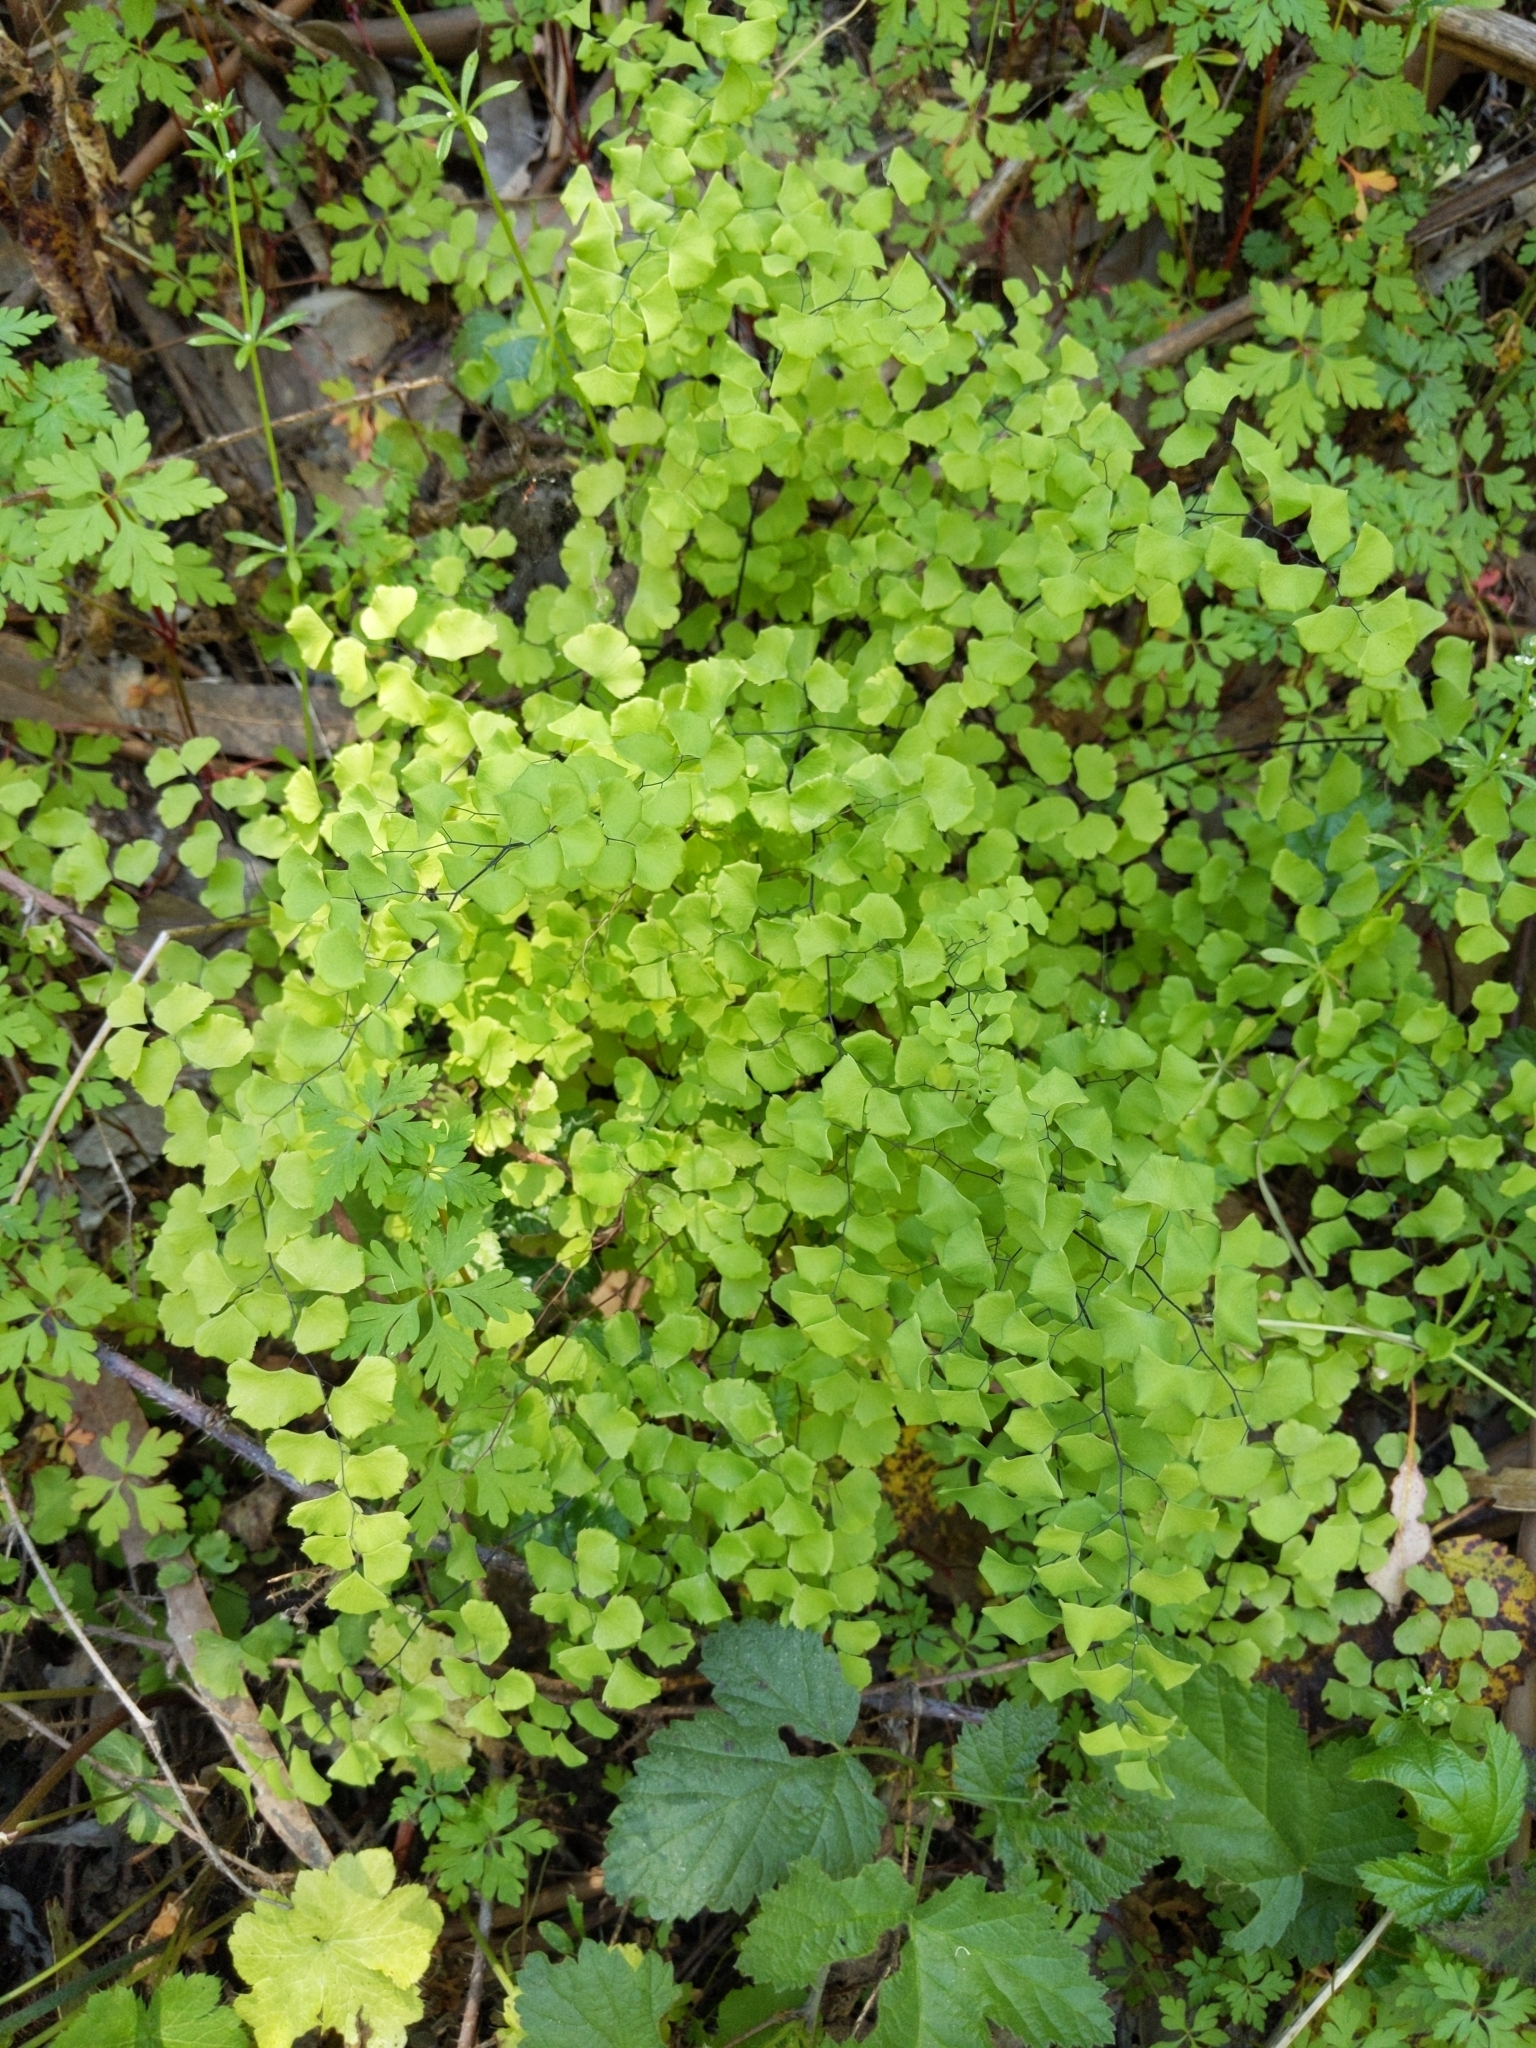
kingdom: Plantae
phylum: Tracheophyta
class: Polypodiopsida
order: Polypodiales
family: Pteridaceae
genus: Adiantum
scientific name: Adiantum jordanii
